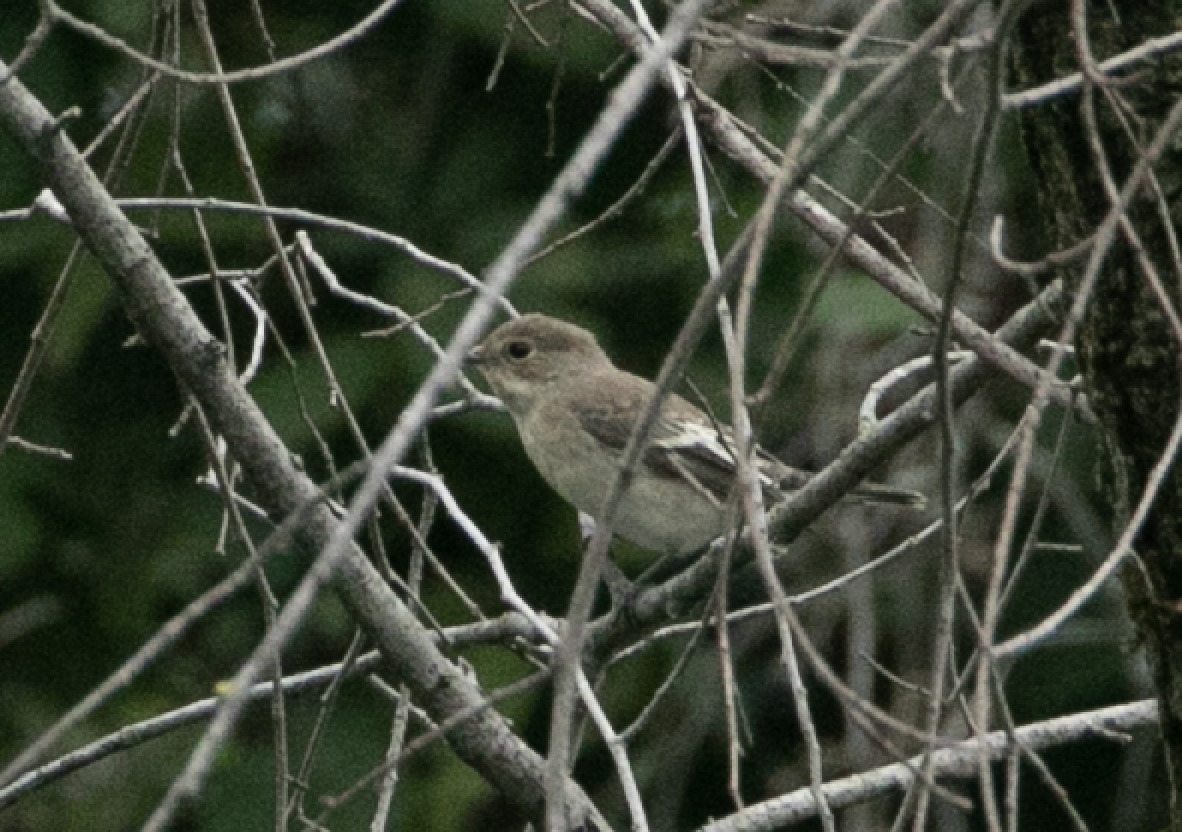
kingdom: Animalia
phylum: Chordata
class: Aves
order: Passeriformes
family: Muscicapidae
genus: Ficedula
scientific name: Ficedula hypoleuca
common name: European pied flycatcher
